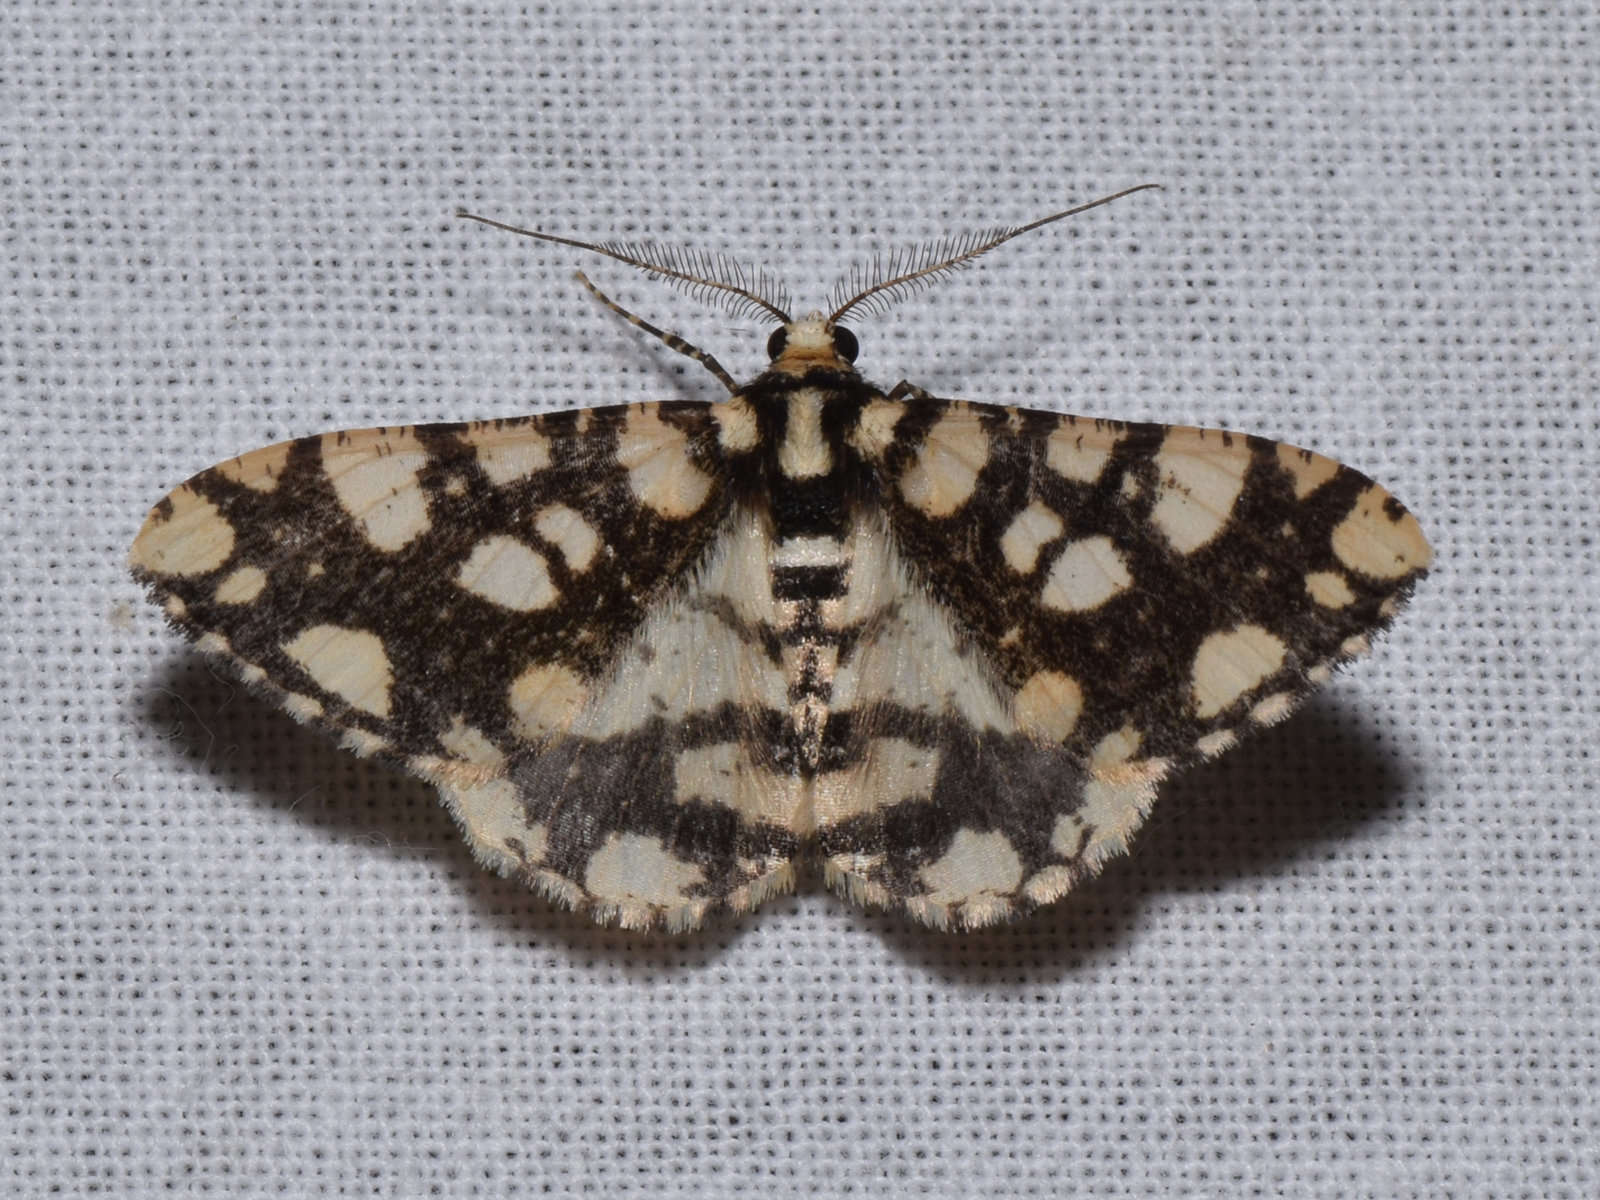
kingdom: Animalia
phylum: Arthropoda
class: Insecta
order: Lepidoptera
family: Geometridae
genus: Alcis
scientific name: Alcis maculata
